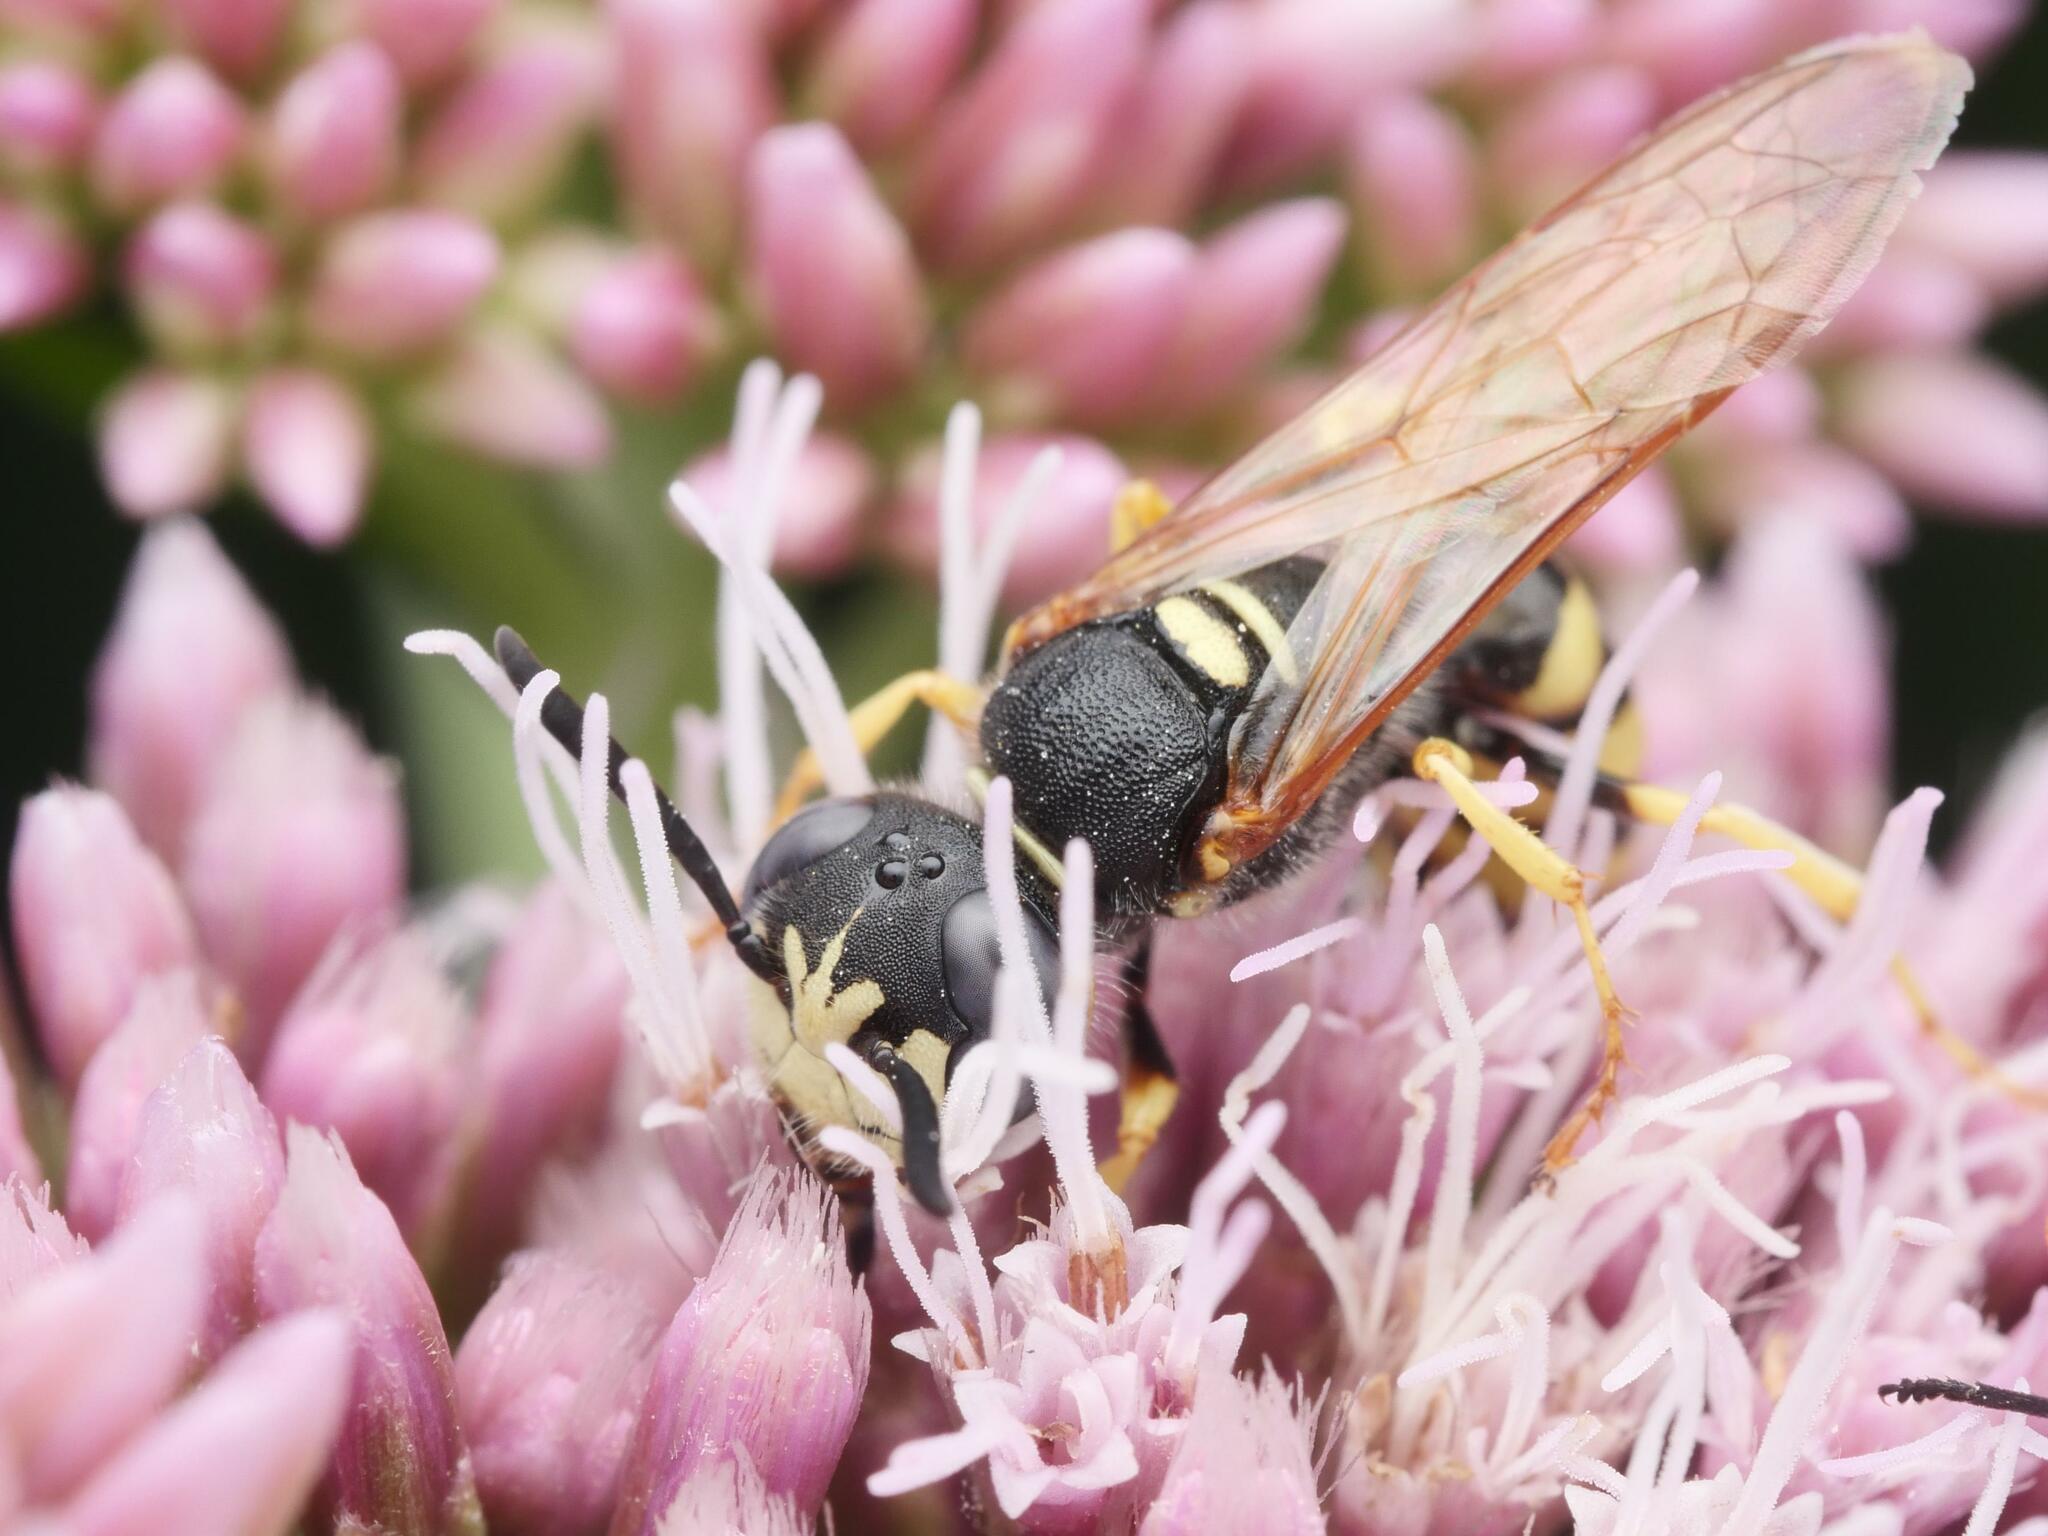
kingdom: Animalia
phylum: Arthropoda
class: Insecta
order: Hymenoptera
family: Crabronidae
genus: Philanthus
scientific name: Philanthus triangulum
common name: Bee wolf
